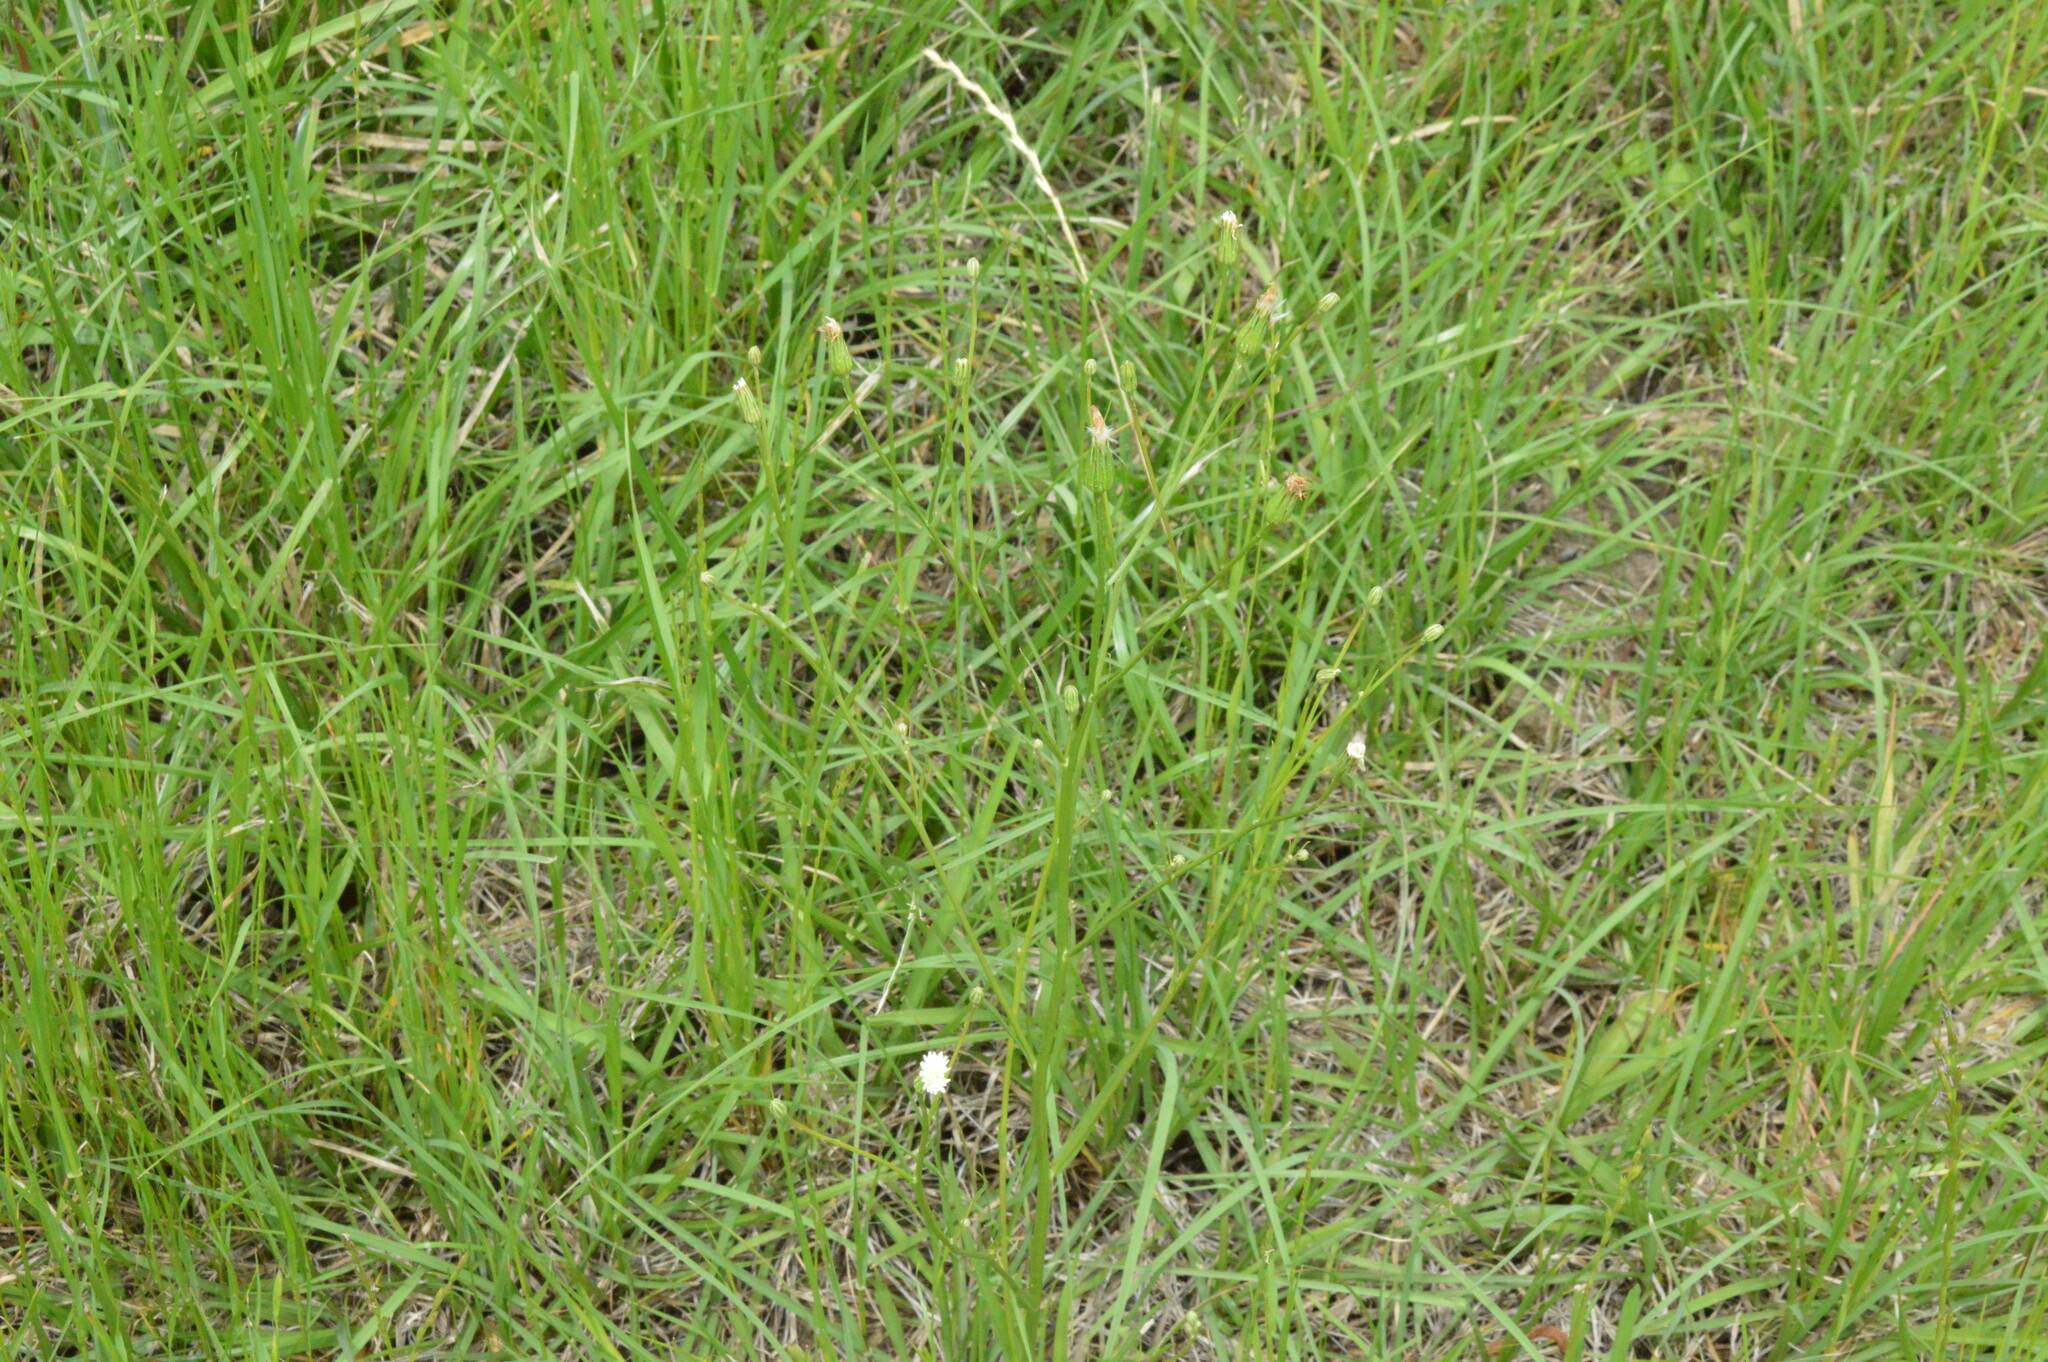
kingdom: Plantae
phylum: Tracheophyta
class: Magnoliopsida
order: Asterales
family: Asteraceae
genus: Hypochaeris
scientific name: Hypochaeris albiflora
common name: White flatweed
